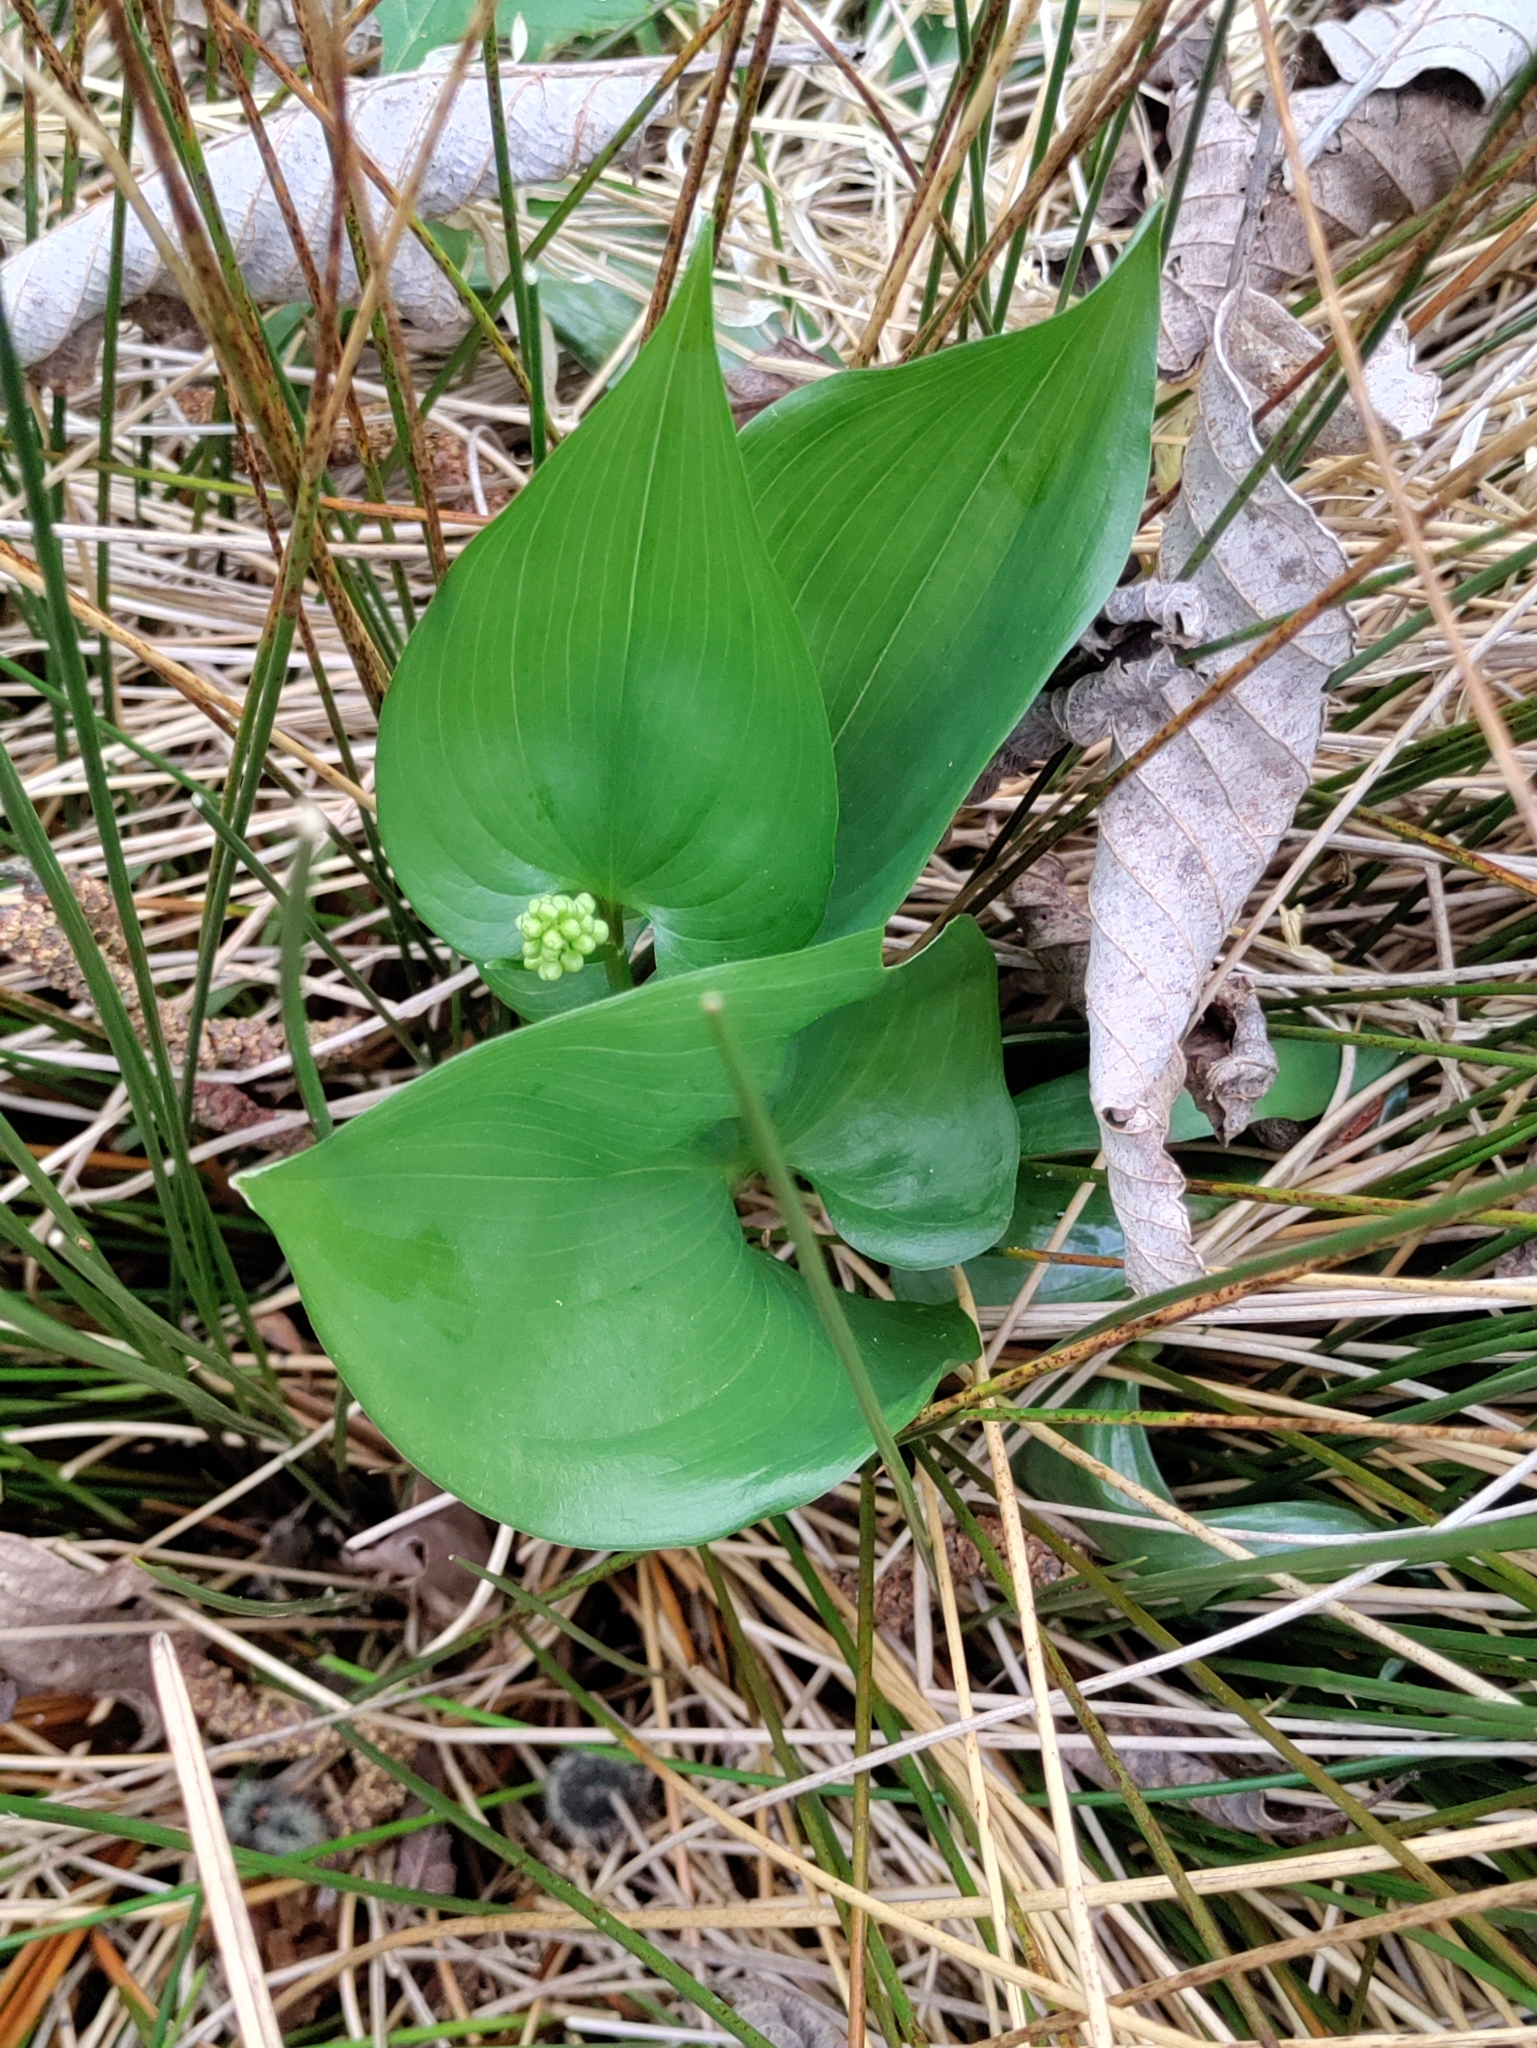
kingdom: Plantae
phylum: Tracheophyta
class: Liliopsida
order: Asparagales
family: Asparagaceae
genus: Maianthemum
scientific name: Maianthemum dilatatum
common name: False lily-of-the-valley
